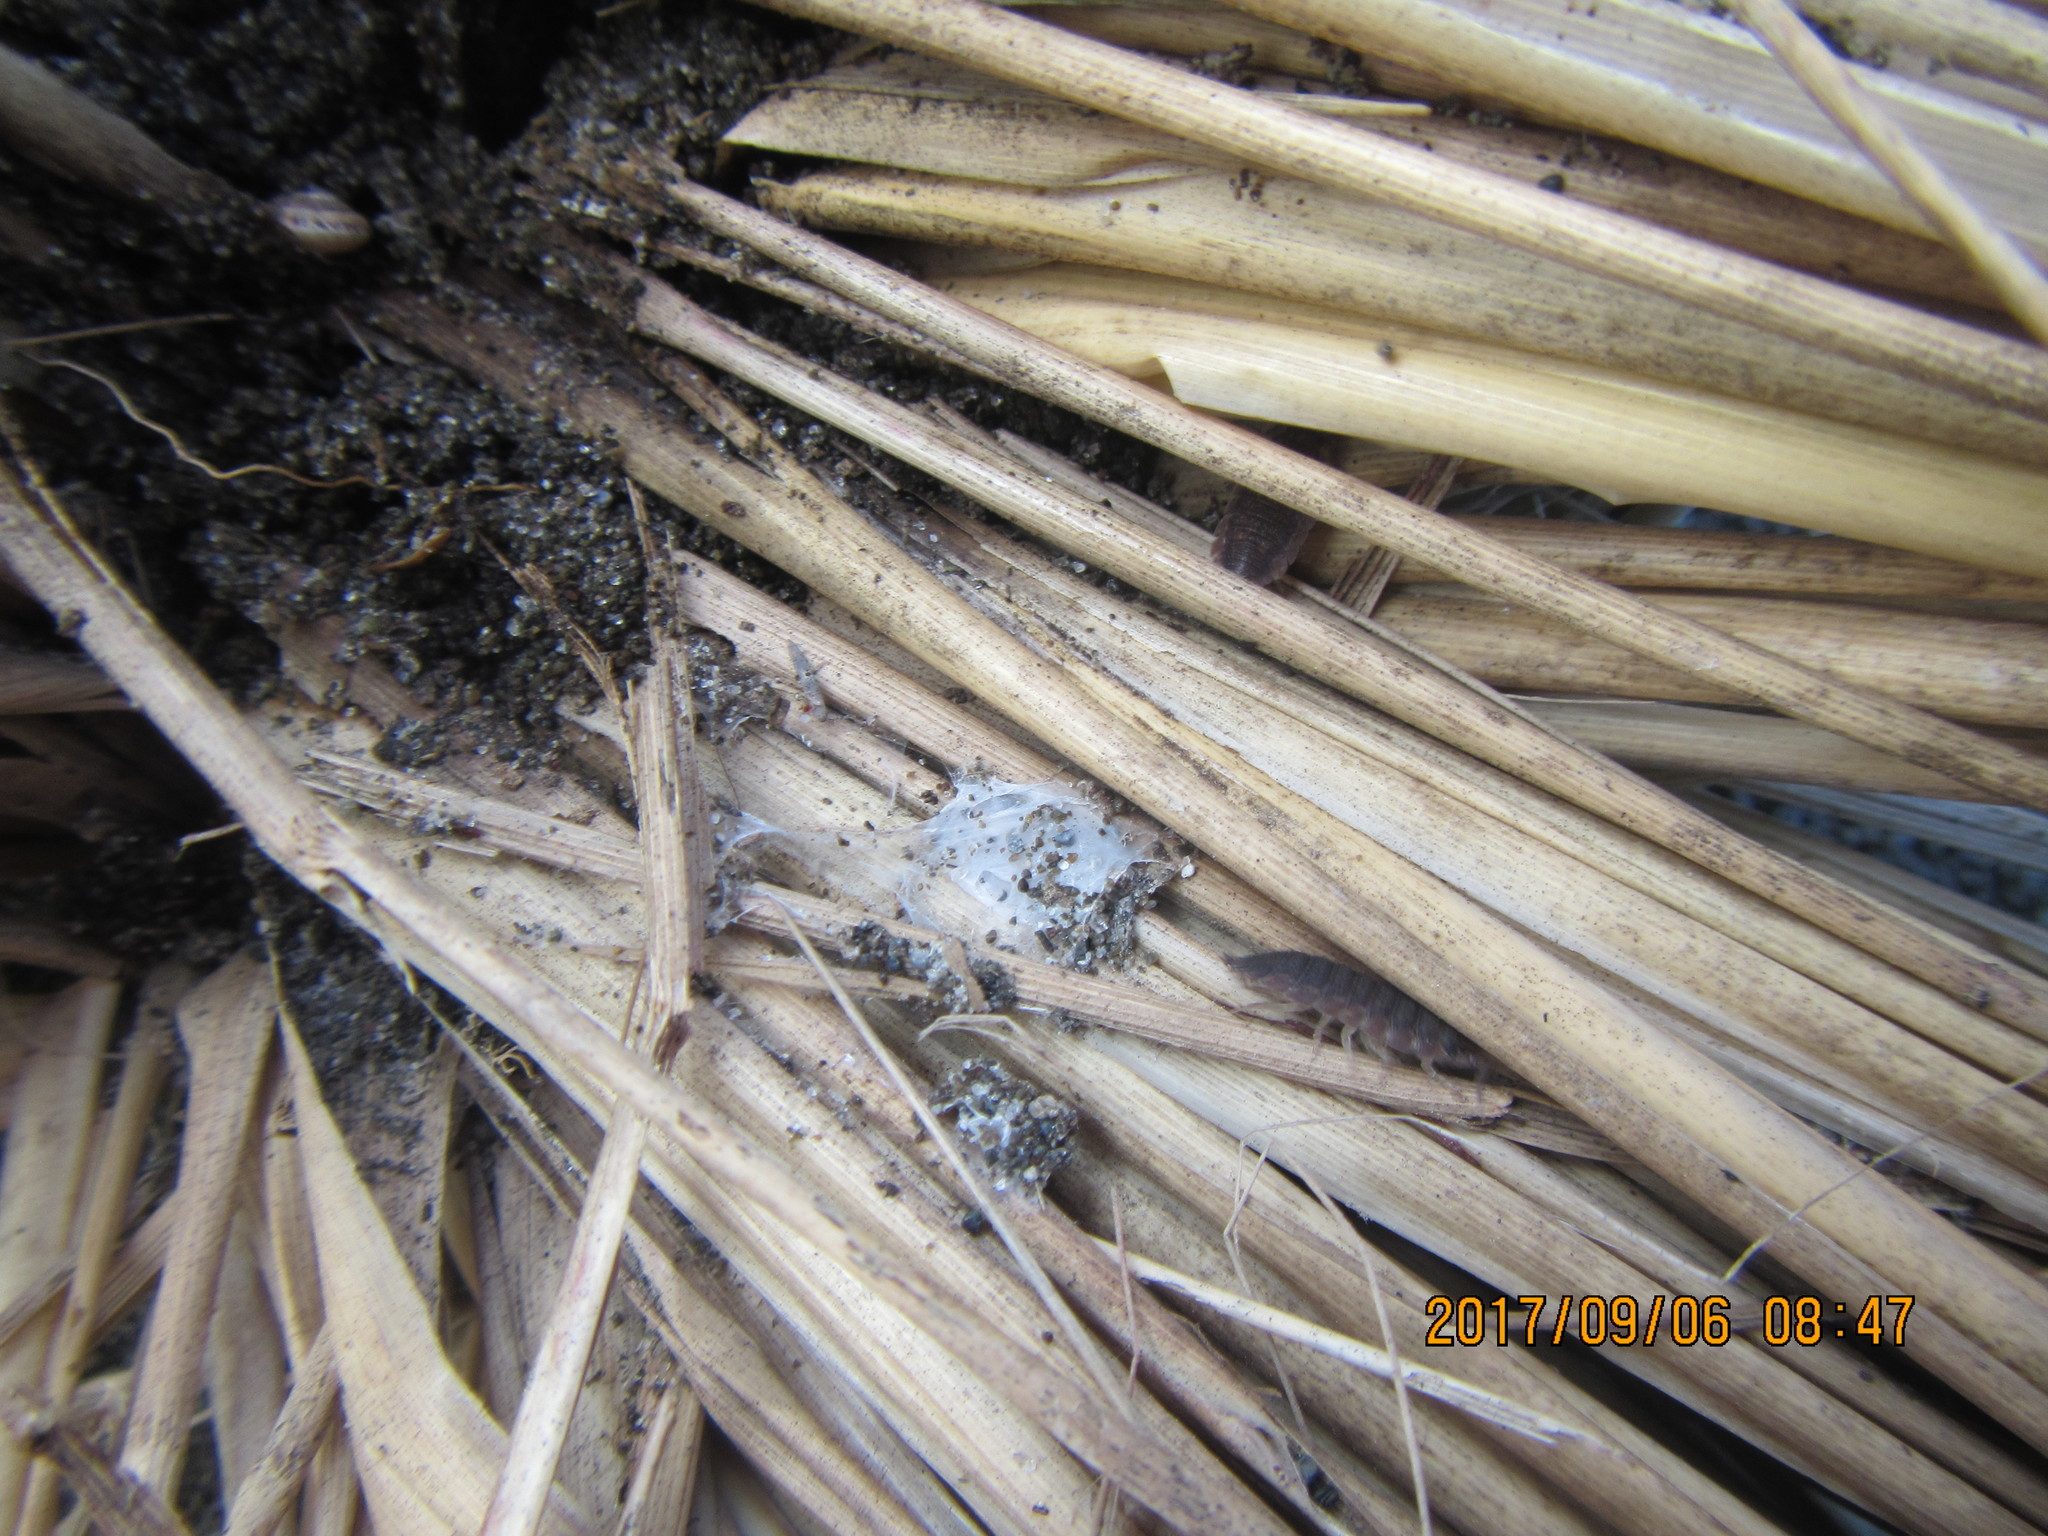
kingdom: Animalia
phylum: Arthropoda
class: Malacostraca
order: Isopoda
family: Porcellionidae
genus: Porcellio
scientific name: Porcellio scaber
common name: Common rough woodlouse
